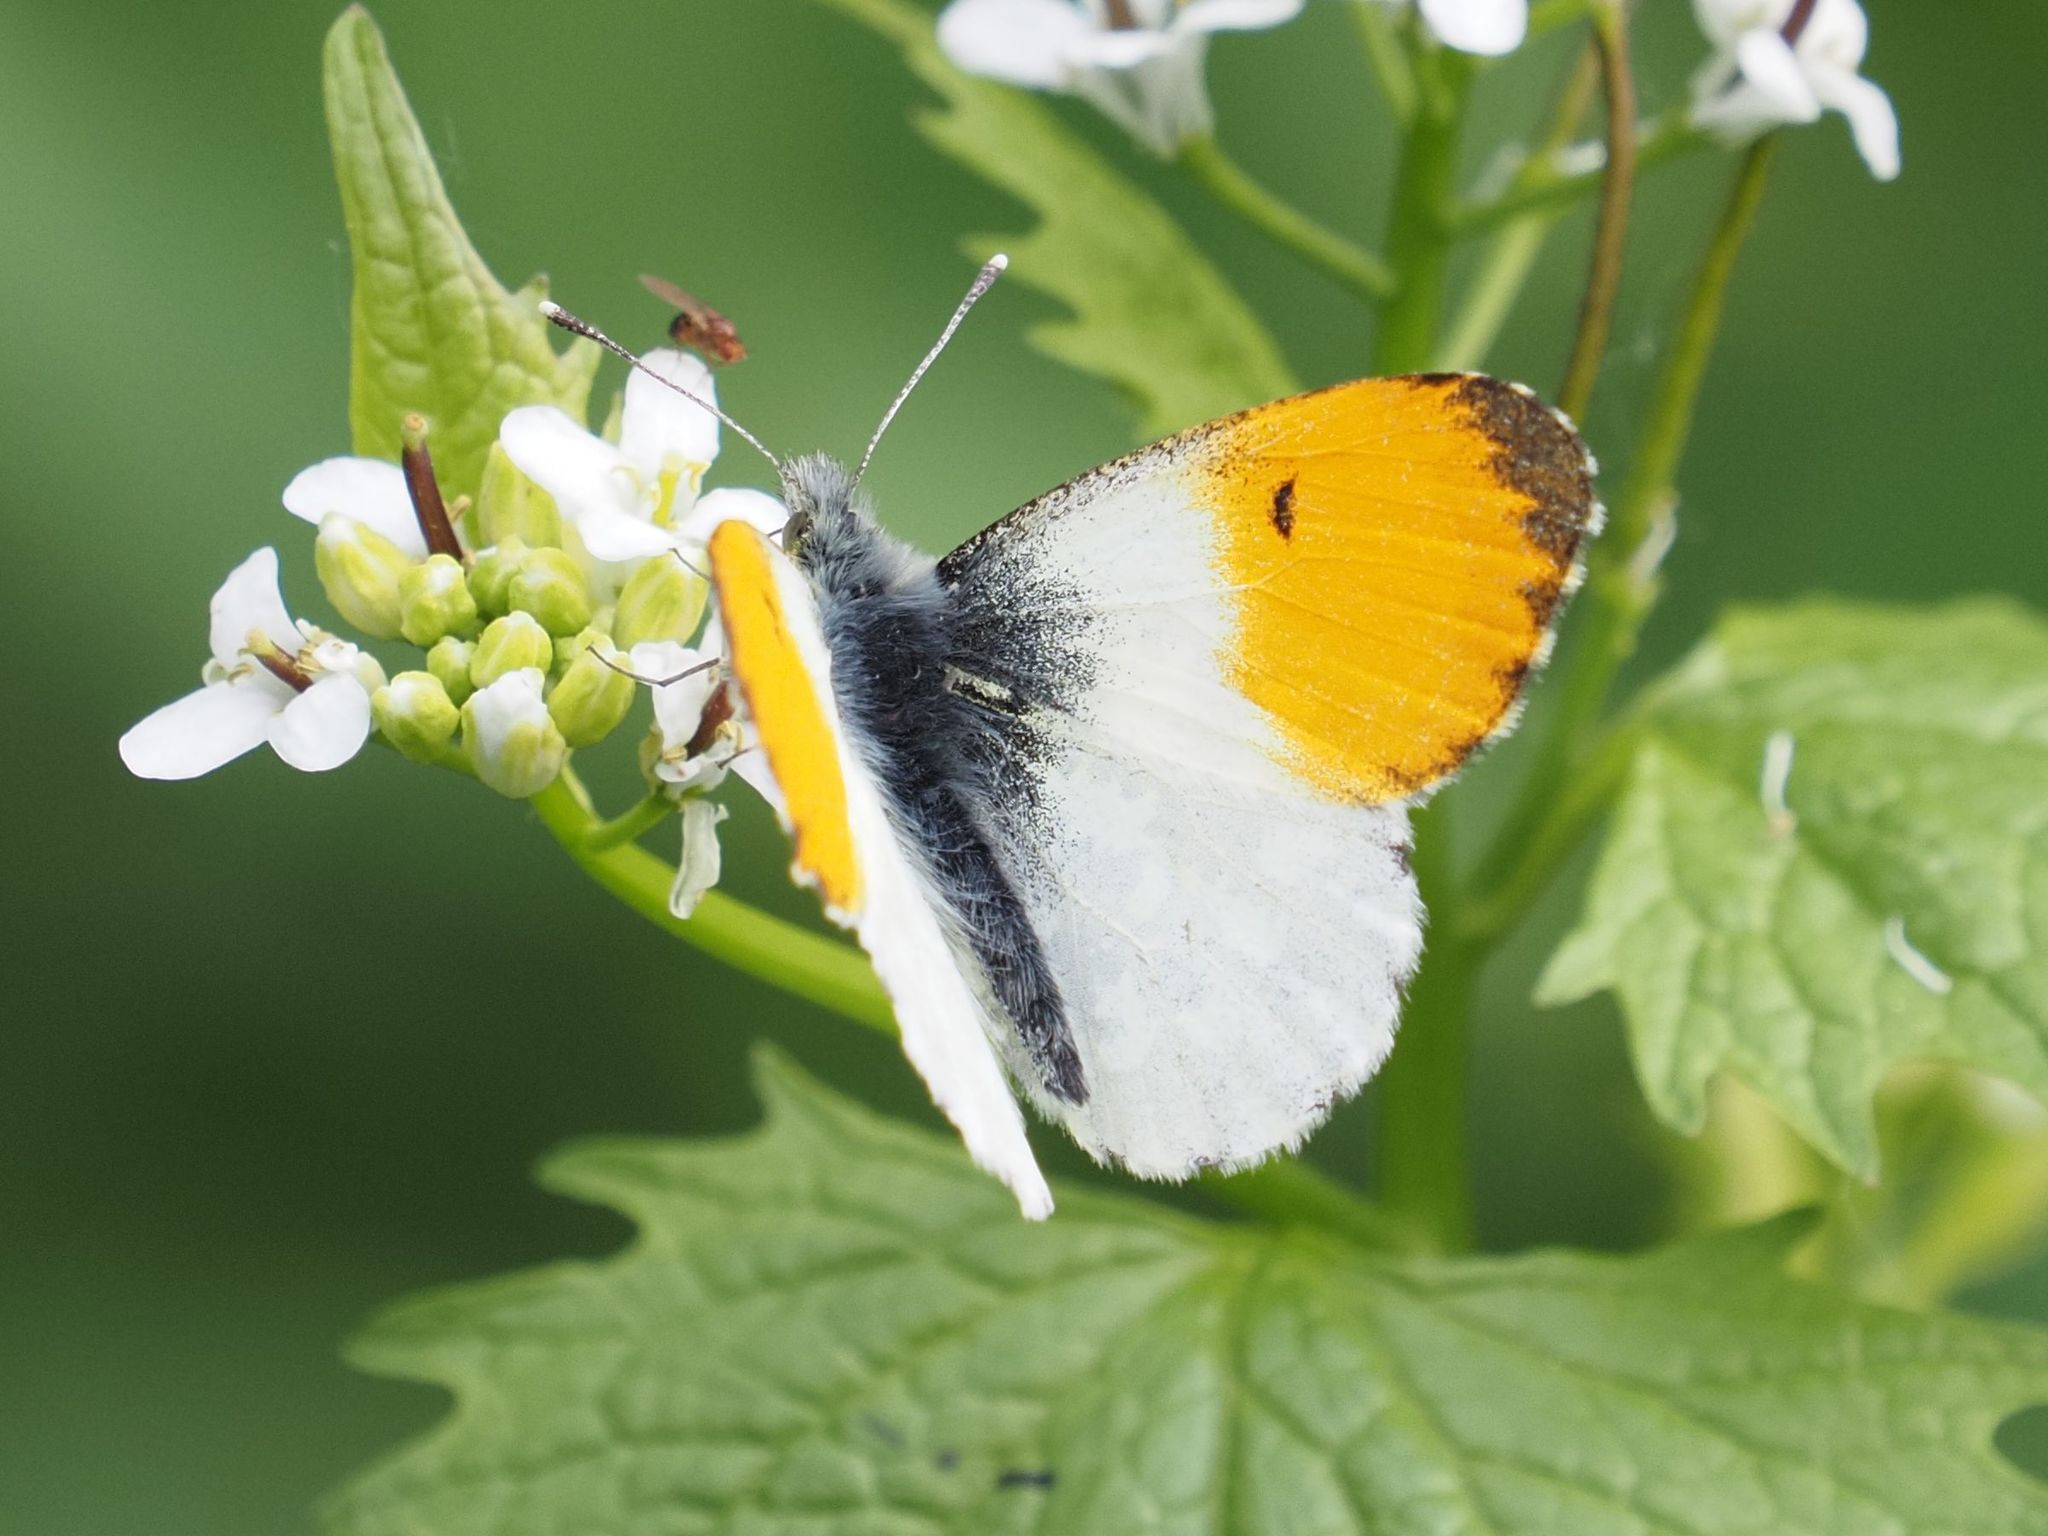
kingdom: Animalia
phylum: Arthropoda
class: Insecta
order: Lepidoptera
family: Pieridae
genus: Anthocharis
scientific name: Anthocharis cardamines
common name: Orange-tip
